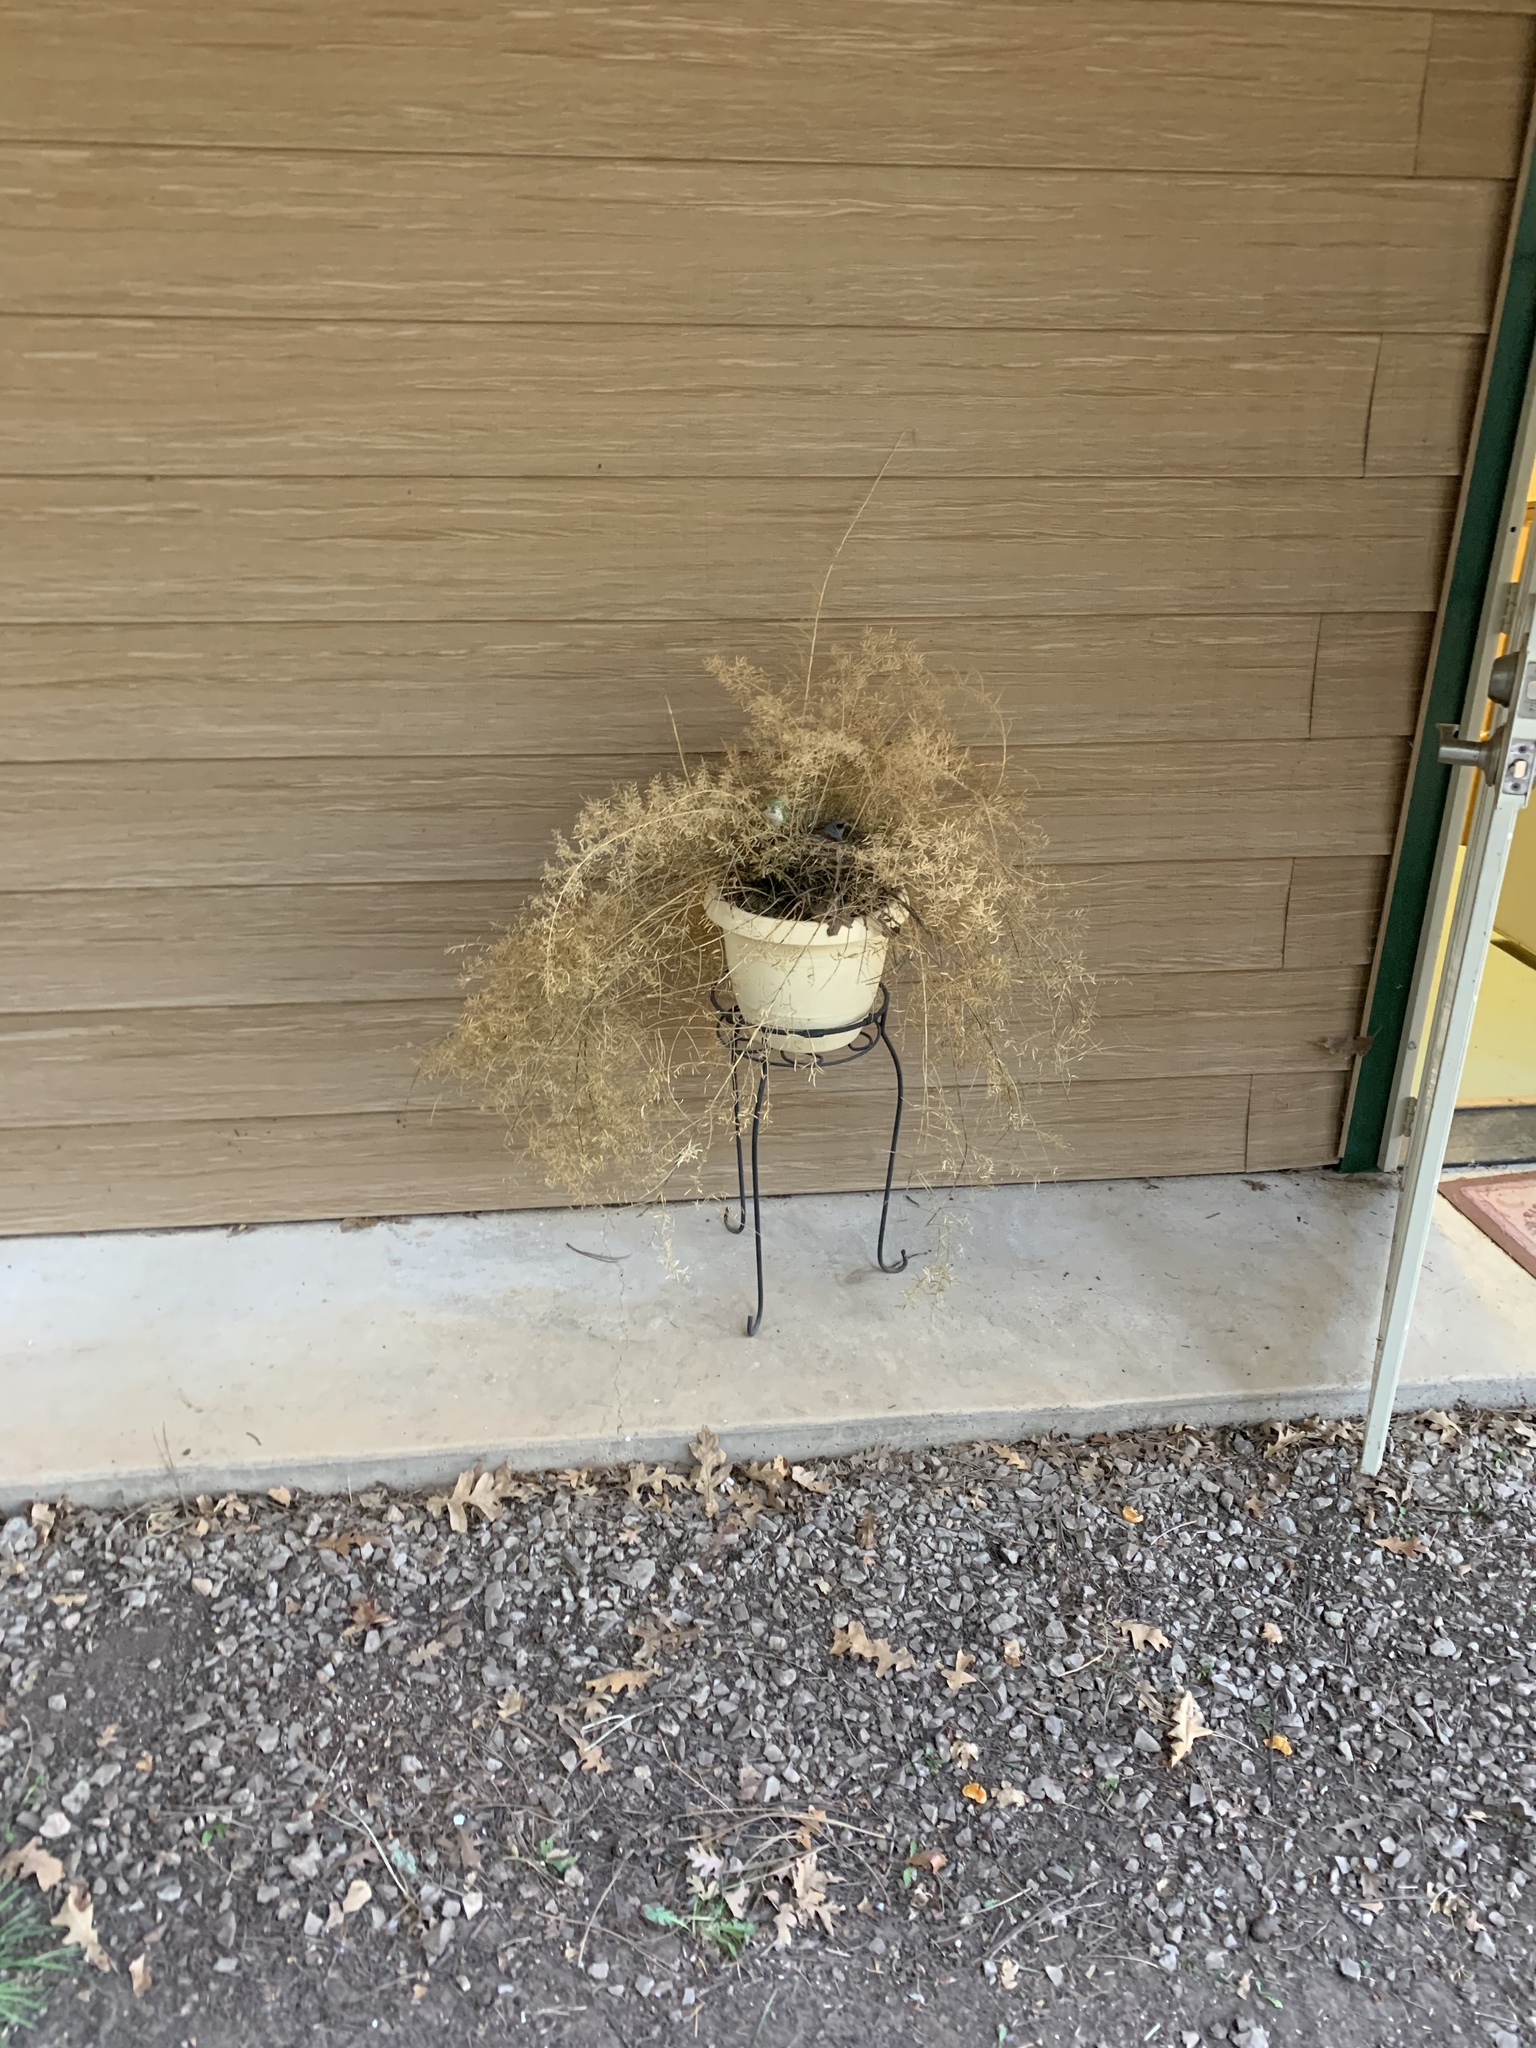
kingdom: Animalia
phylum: Chordata
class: Aves
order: Passeriformes
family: Passerellidae
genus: Junco
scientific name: Junco hyemalis
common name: Dark-eyed junco
